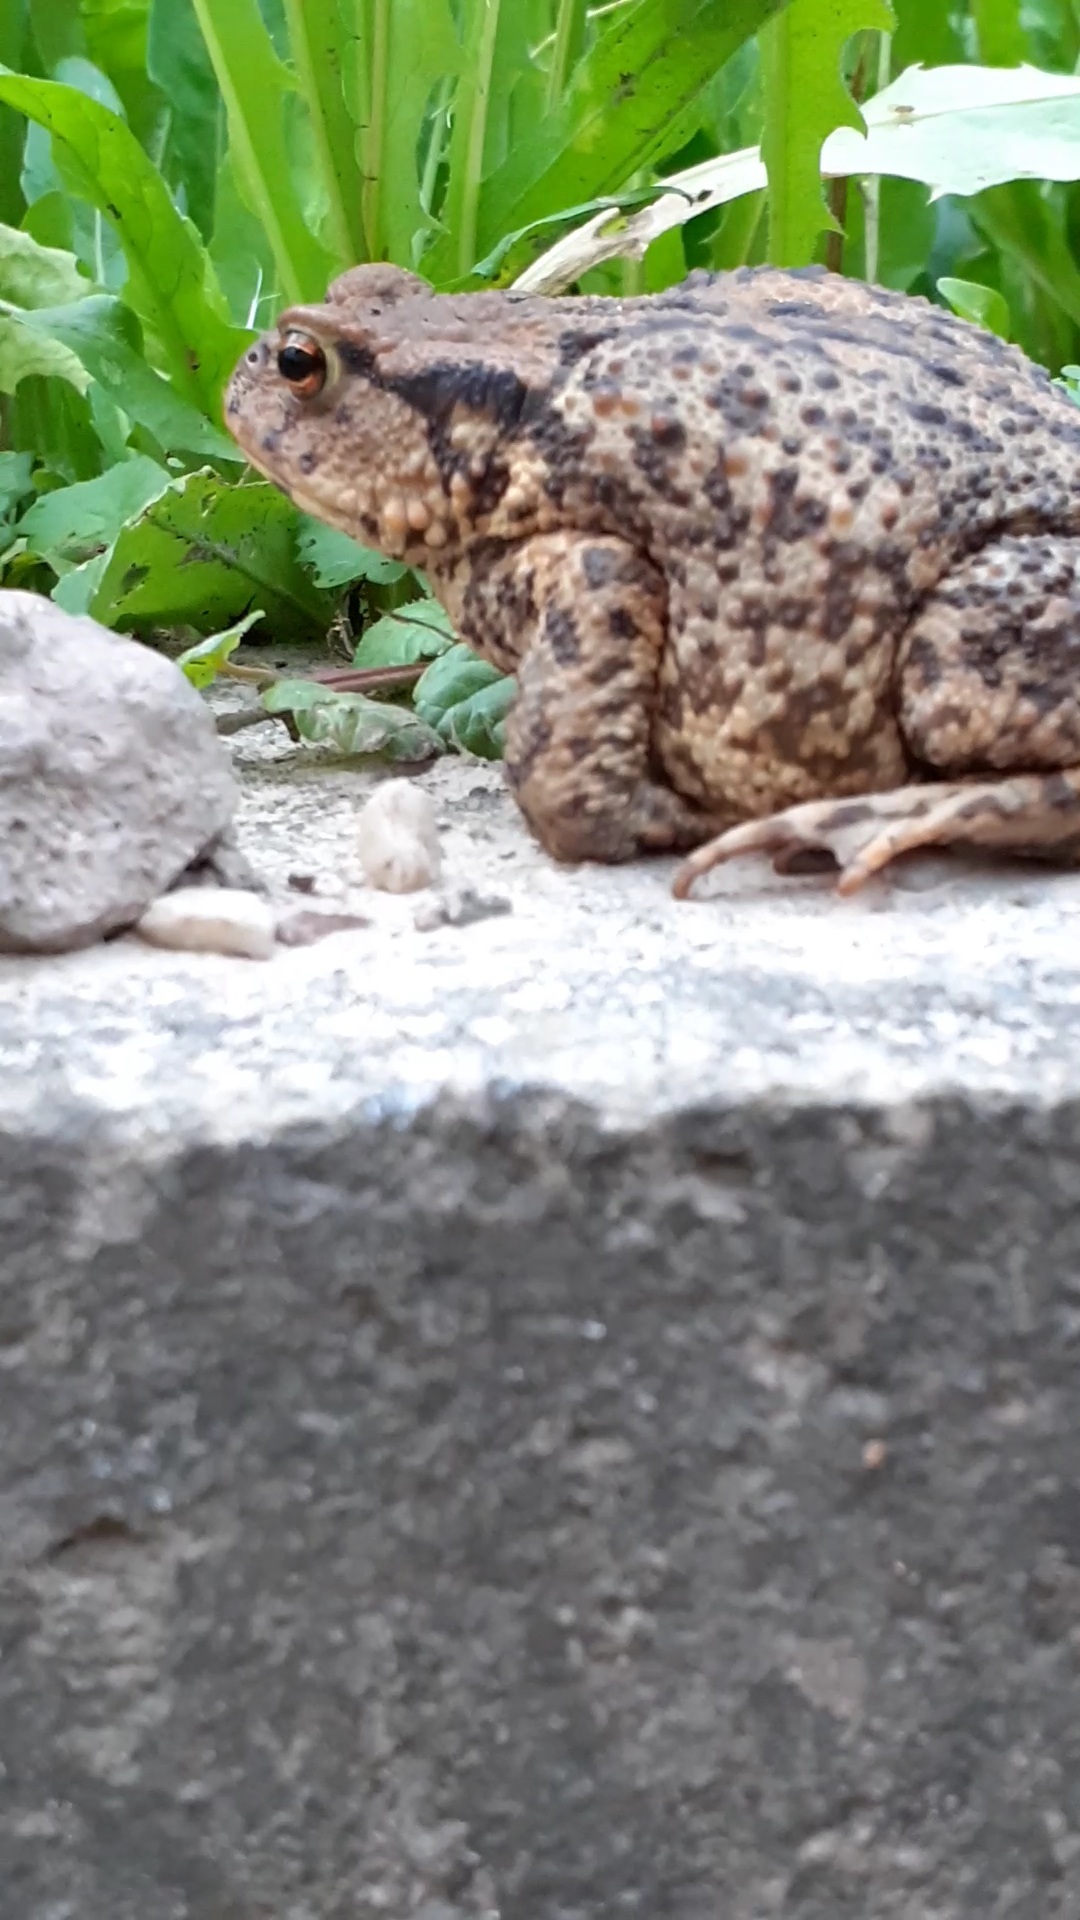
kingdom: Animalia
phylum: Chordata
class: Amphibia
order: Anura
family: Bufonidae
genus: Bufo
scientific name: Bufo bufo
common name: Common toad
